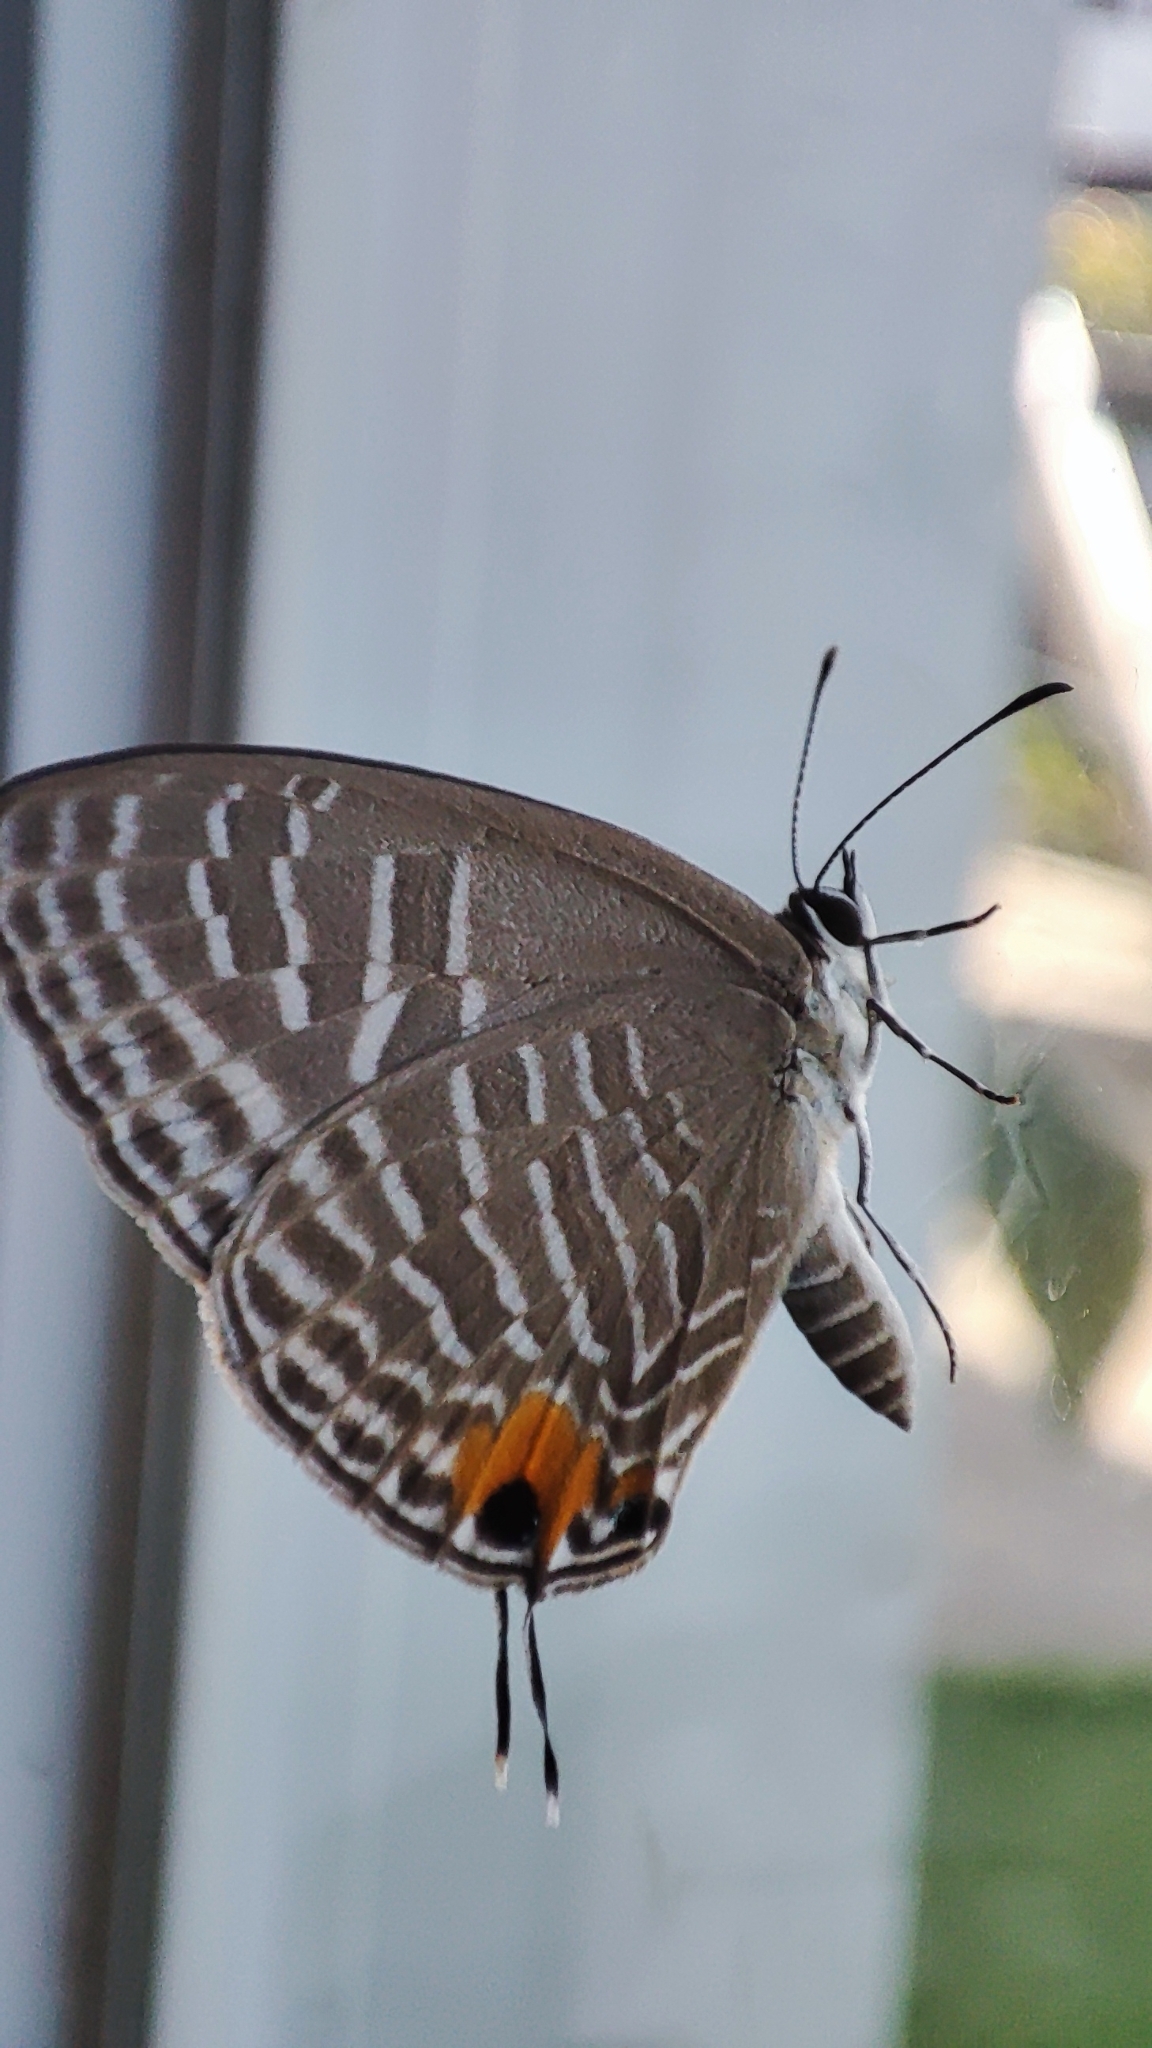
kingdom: Animalia
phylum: Arthropoda
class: Insecta
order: Lepidoptera
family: Lycaenidae
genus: Jamides
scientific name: Jamides alecto
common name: Metallic cerulean
